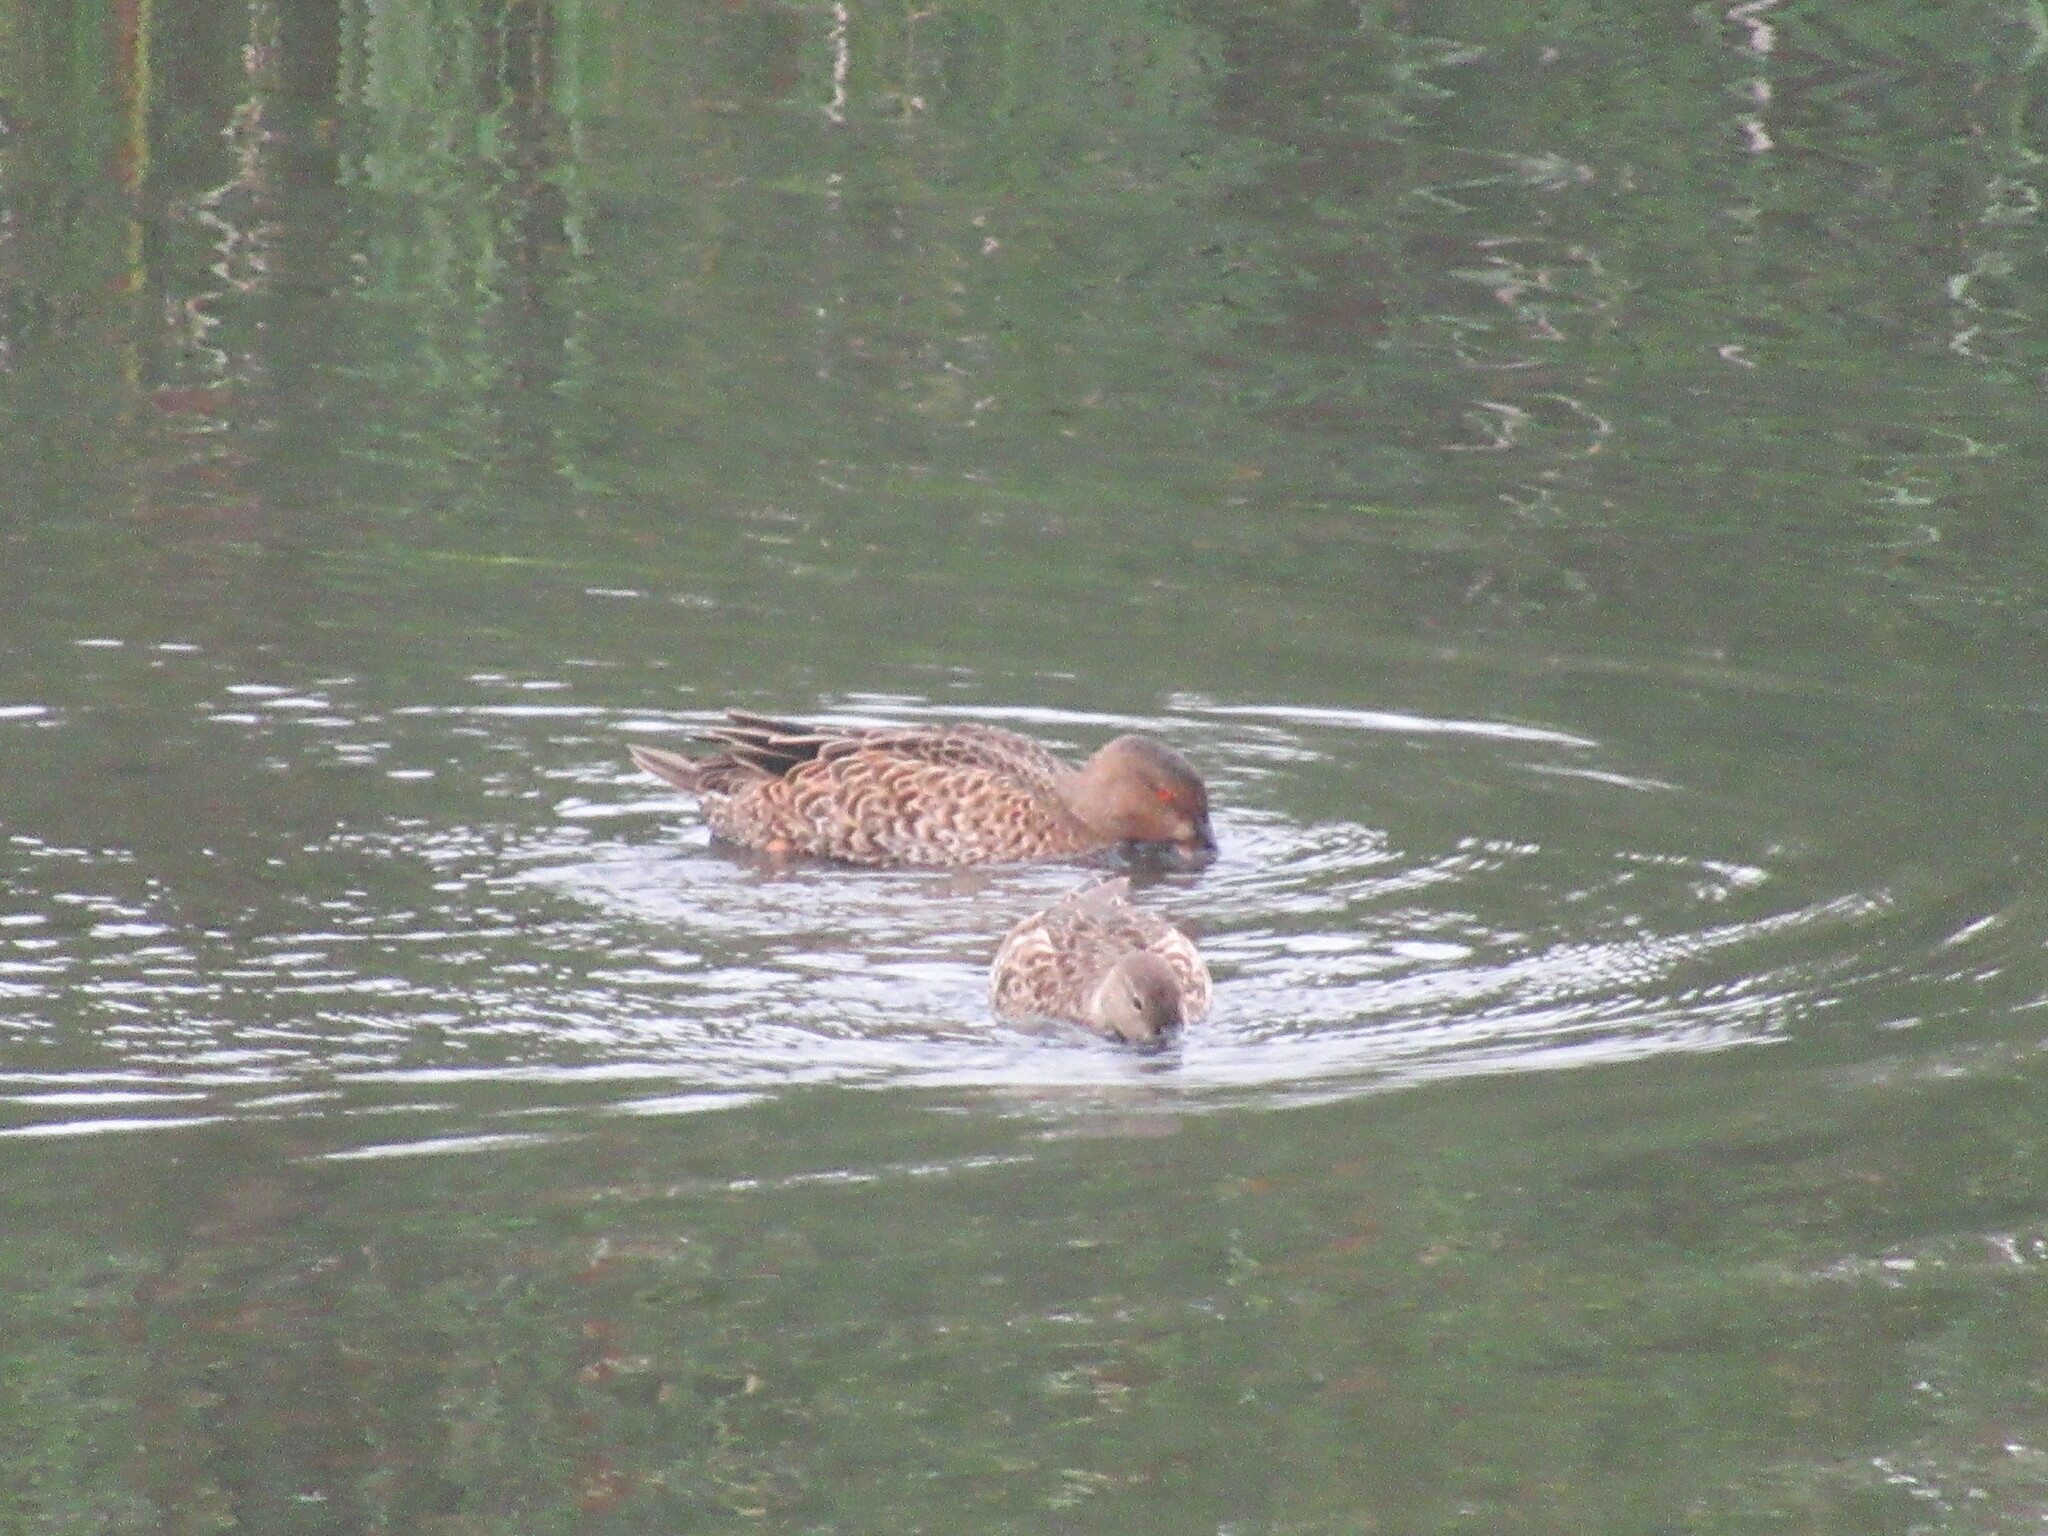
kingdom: Animalia
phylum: Chordata
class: Aves
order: Anseriformes
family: Anatidae
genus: Spatula
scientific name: Spatula cyanoptera
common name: Cinnamon teal
